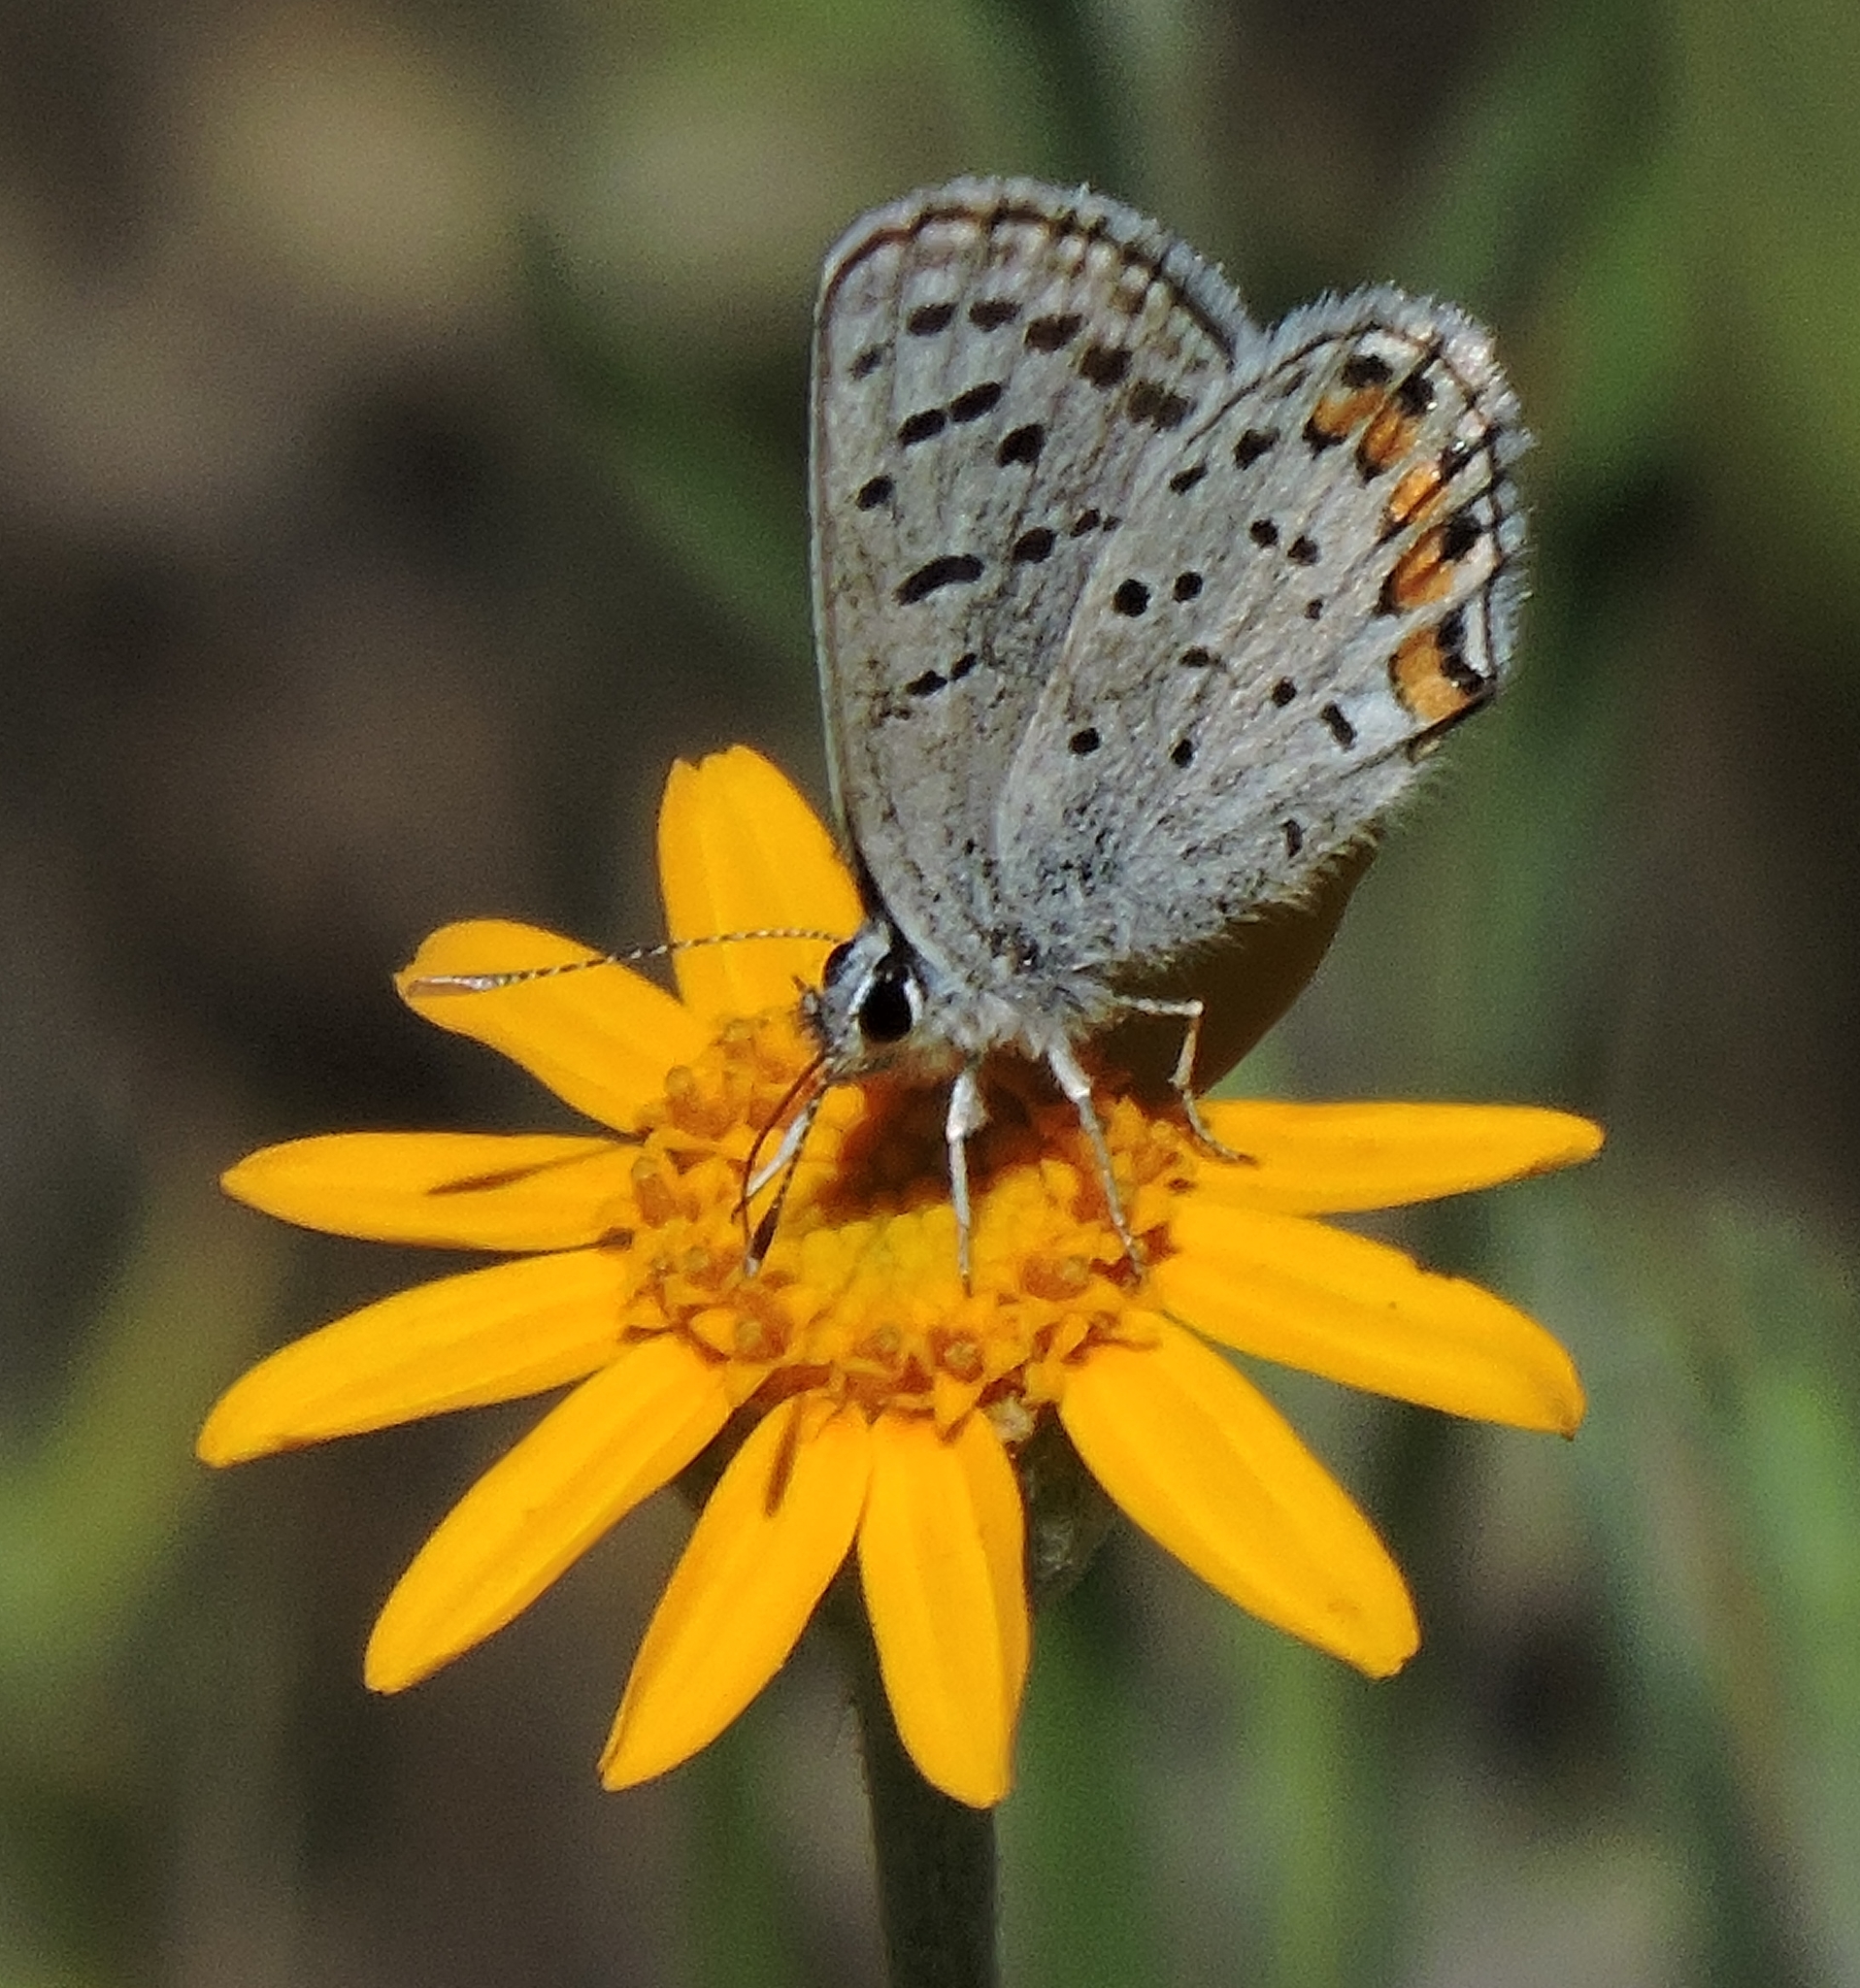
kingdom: Animalia
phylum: Arthropoda
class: Insecta
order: Lepidoptera
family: Lycaenidae
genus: Icaricia
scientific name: Icaricia acmon
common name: Acmon blue
